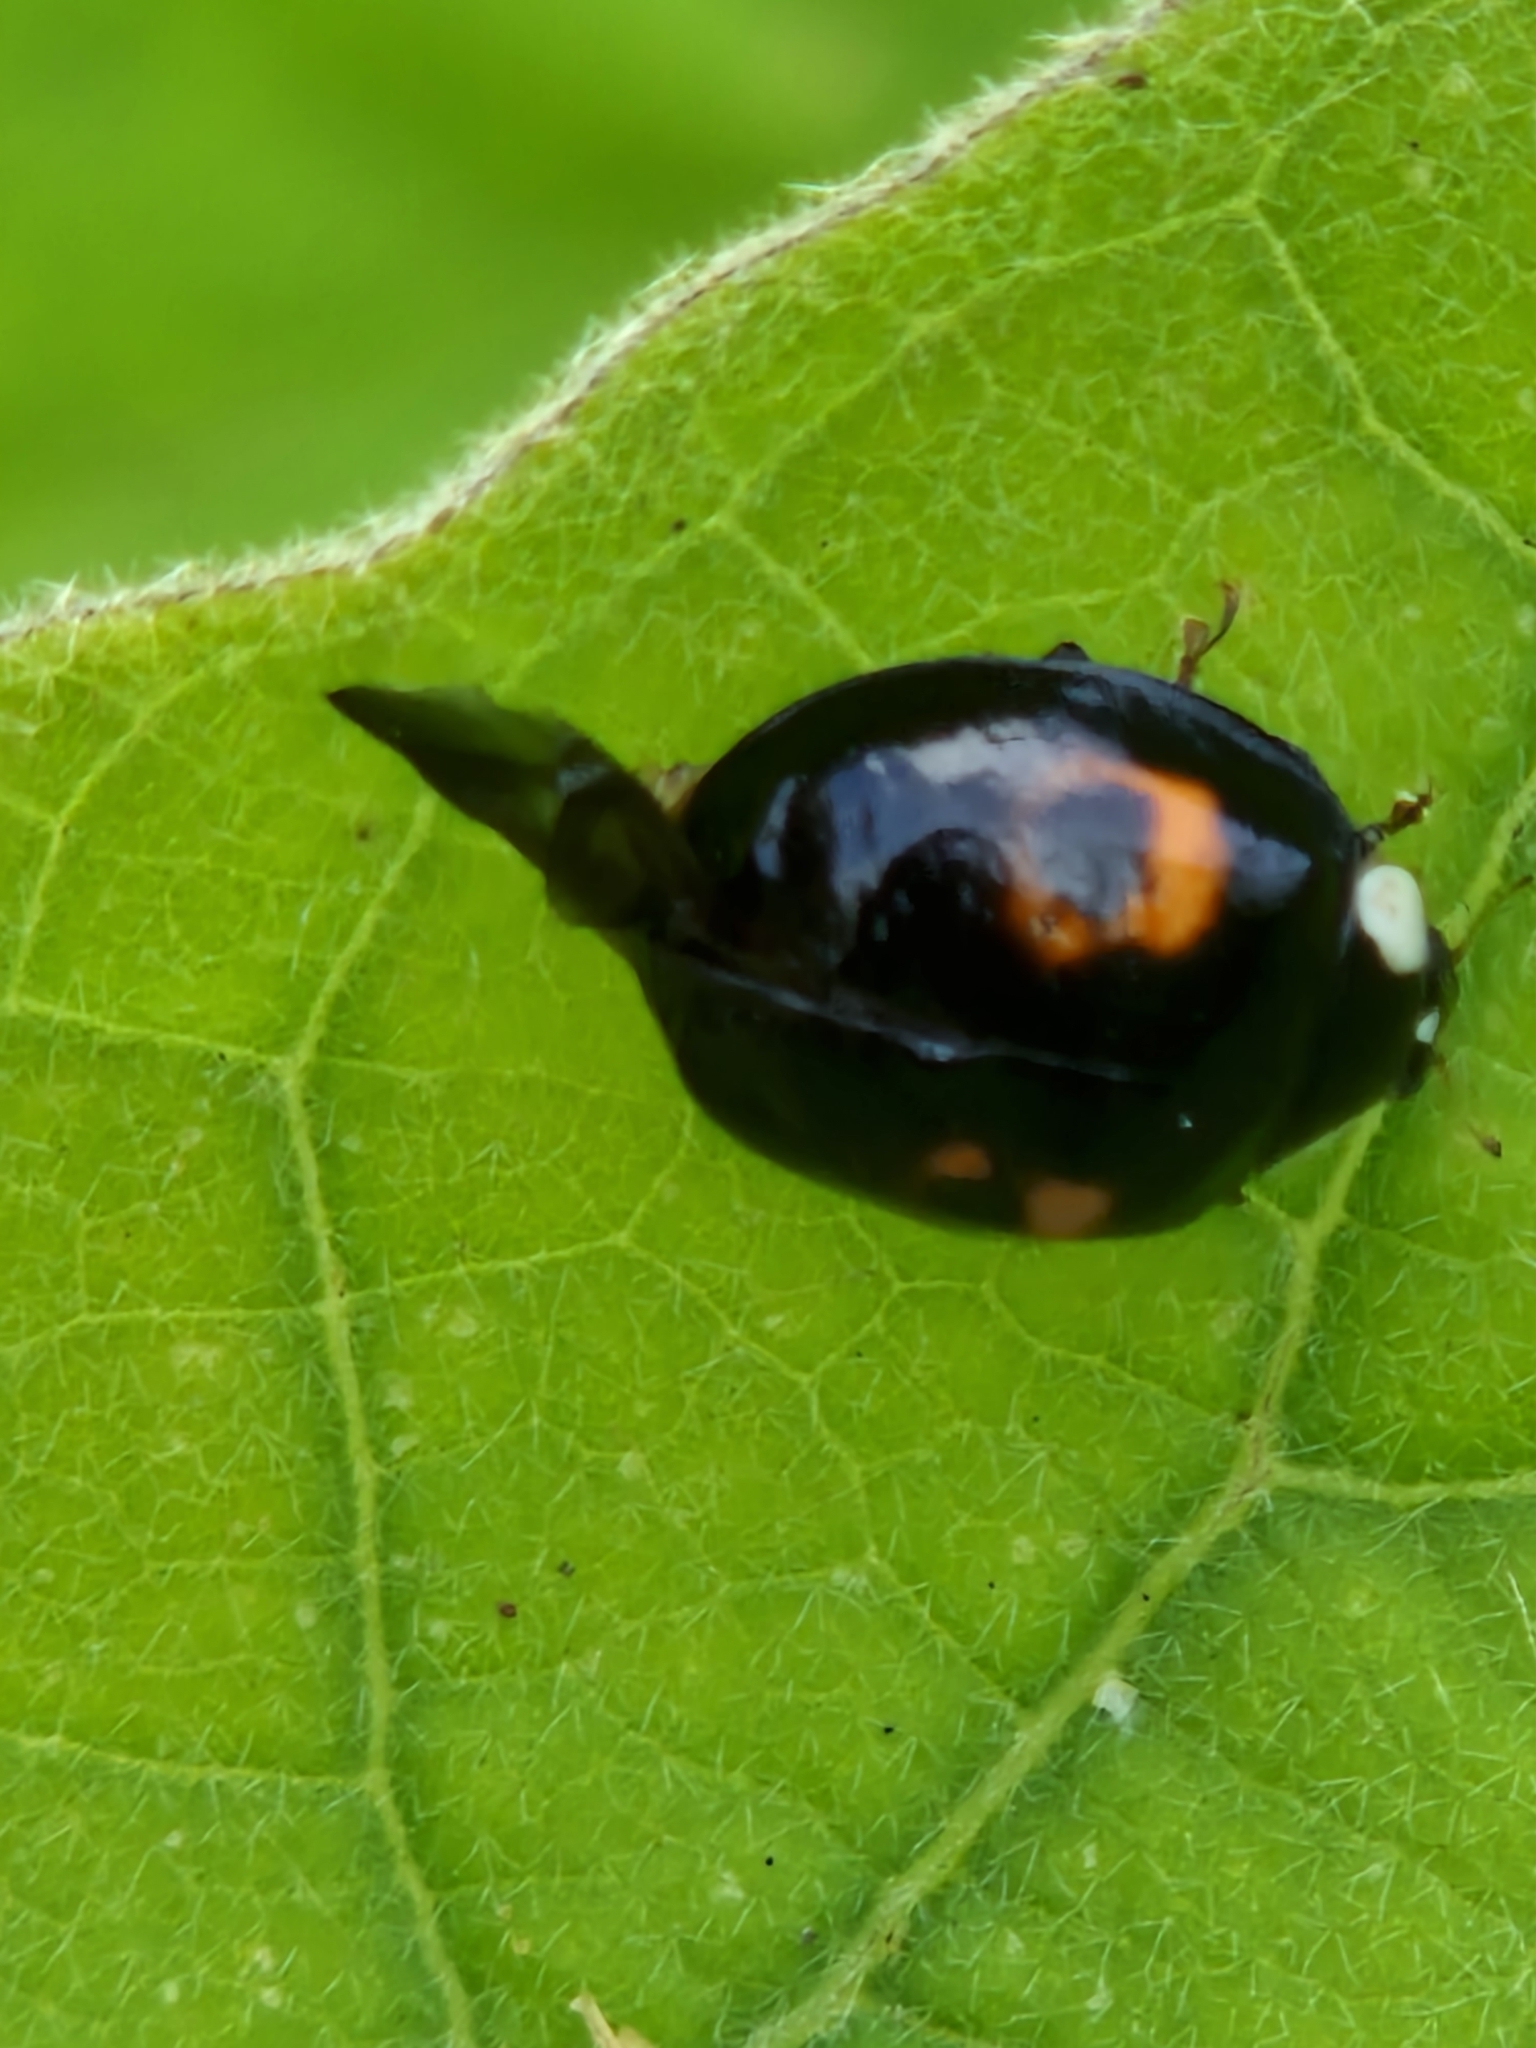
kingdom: Animalia
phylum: Arthropoda
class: Insecta
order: Coleoptera
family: Coccinellidae
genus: Harmonia
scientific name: Harmonia axyridis
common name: Harlequin ladybird
